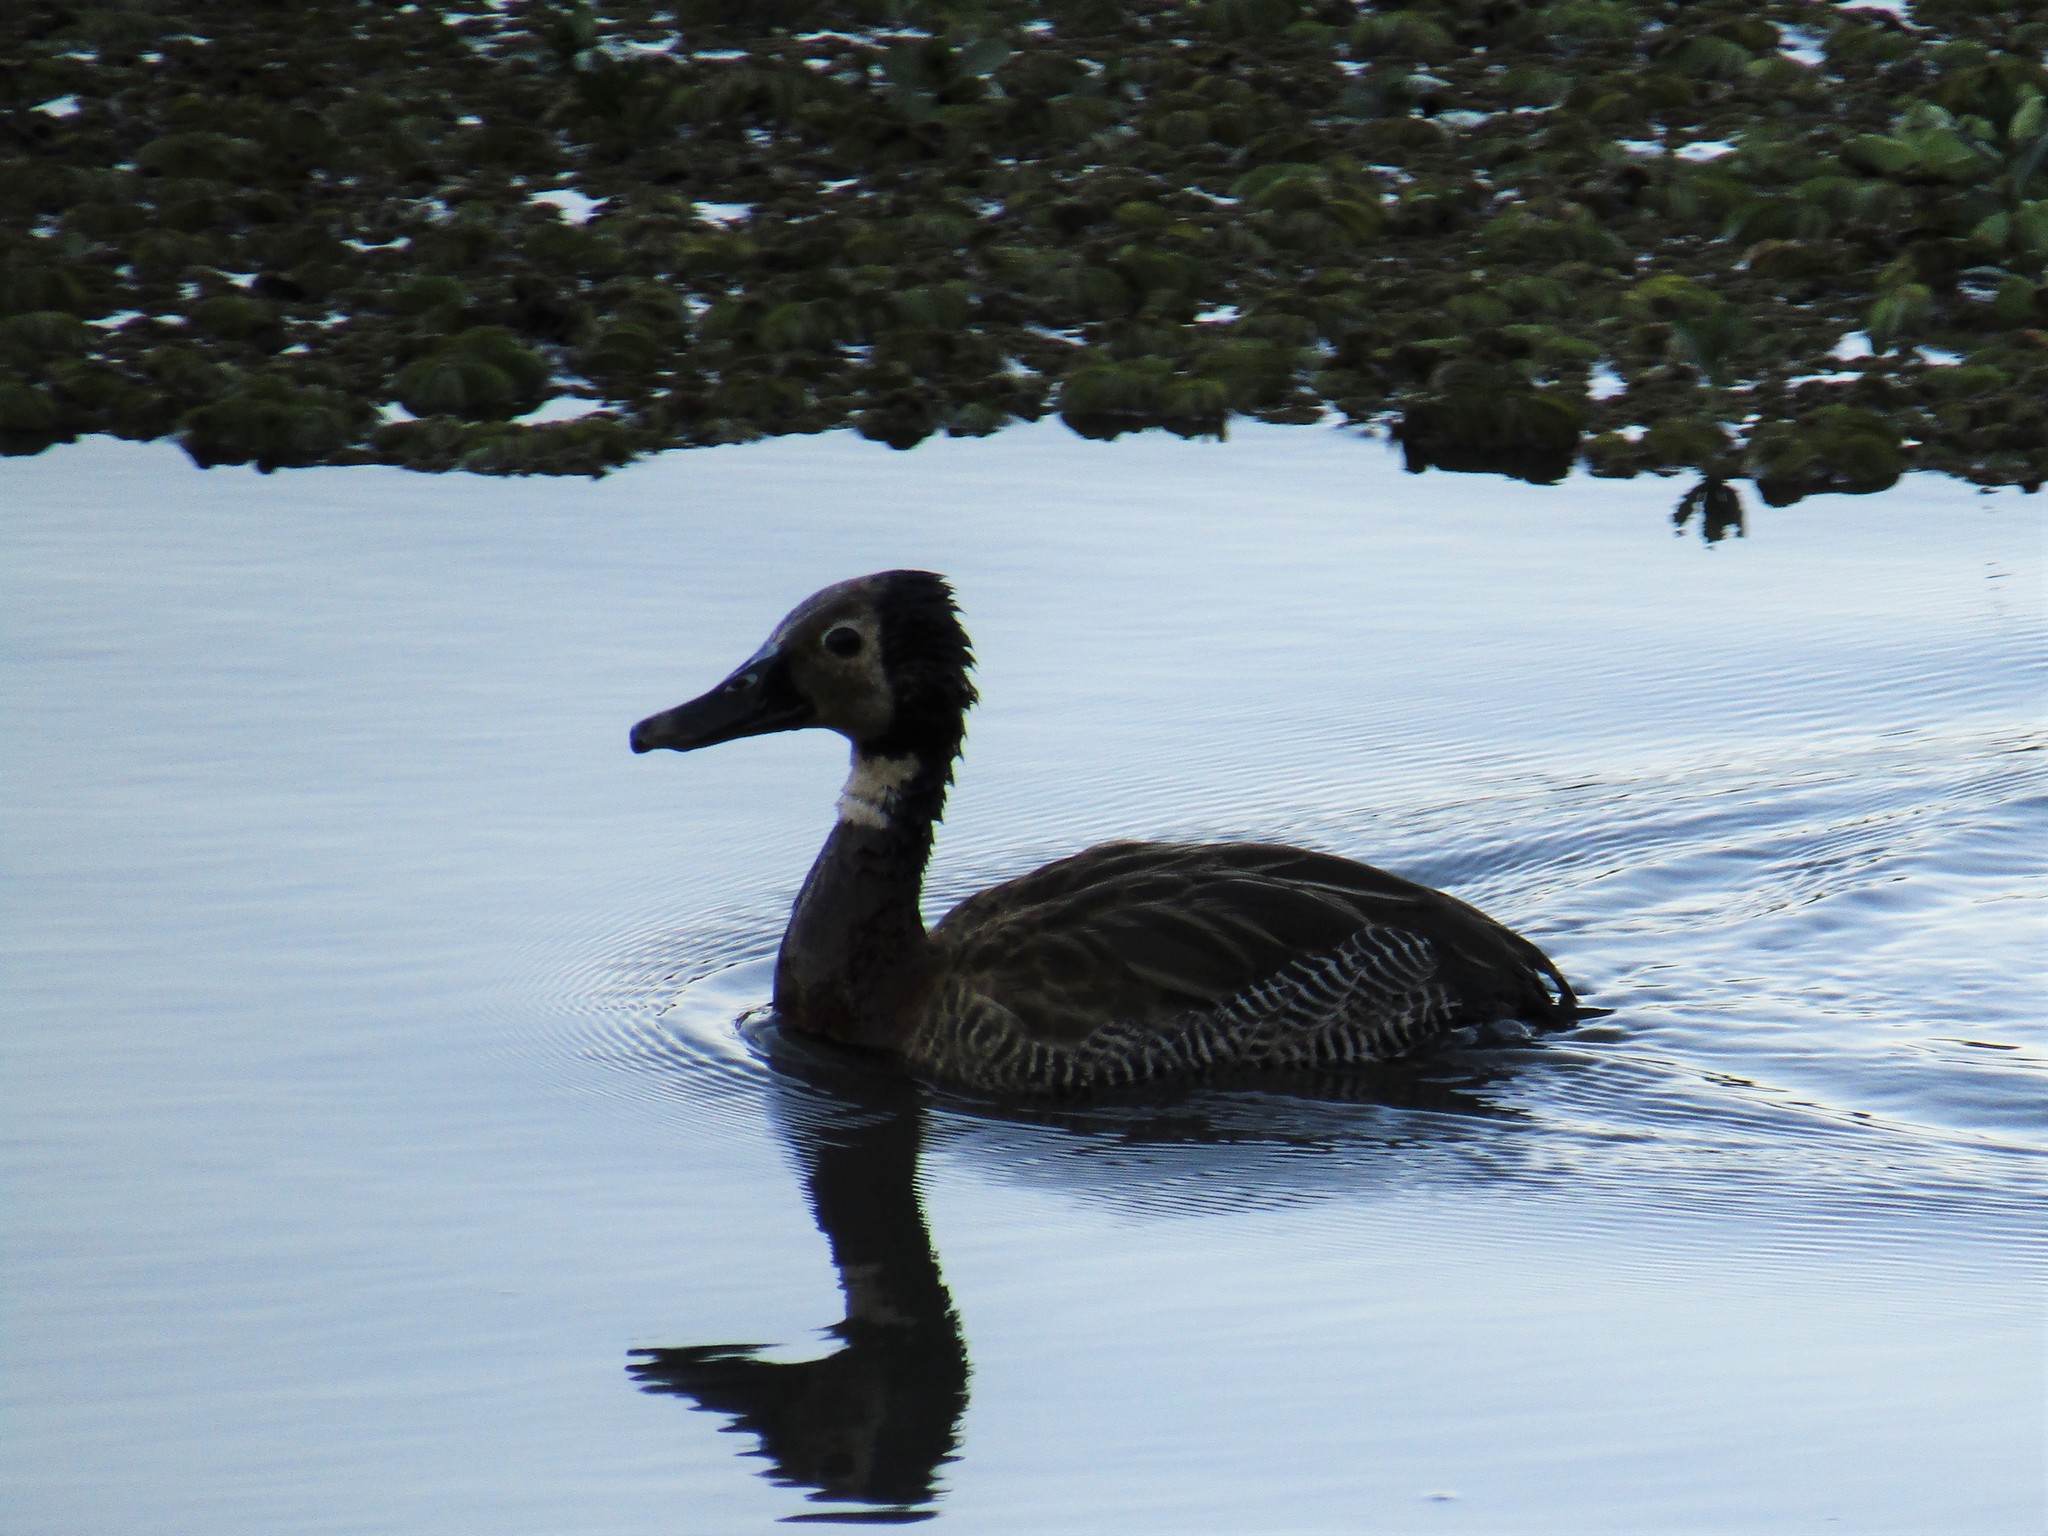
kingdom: Animalia
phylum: Chordata
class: Aves
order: Anseriformes
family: Anatidae
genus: Dendrocygna
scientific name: Dendrocygna viduata
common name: White-faced whistling duck
